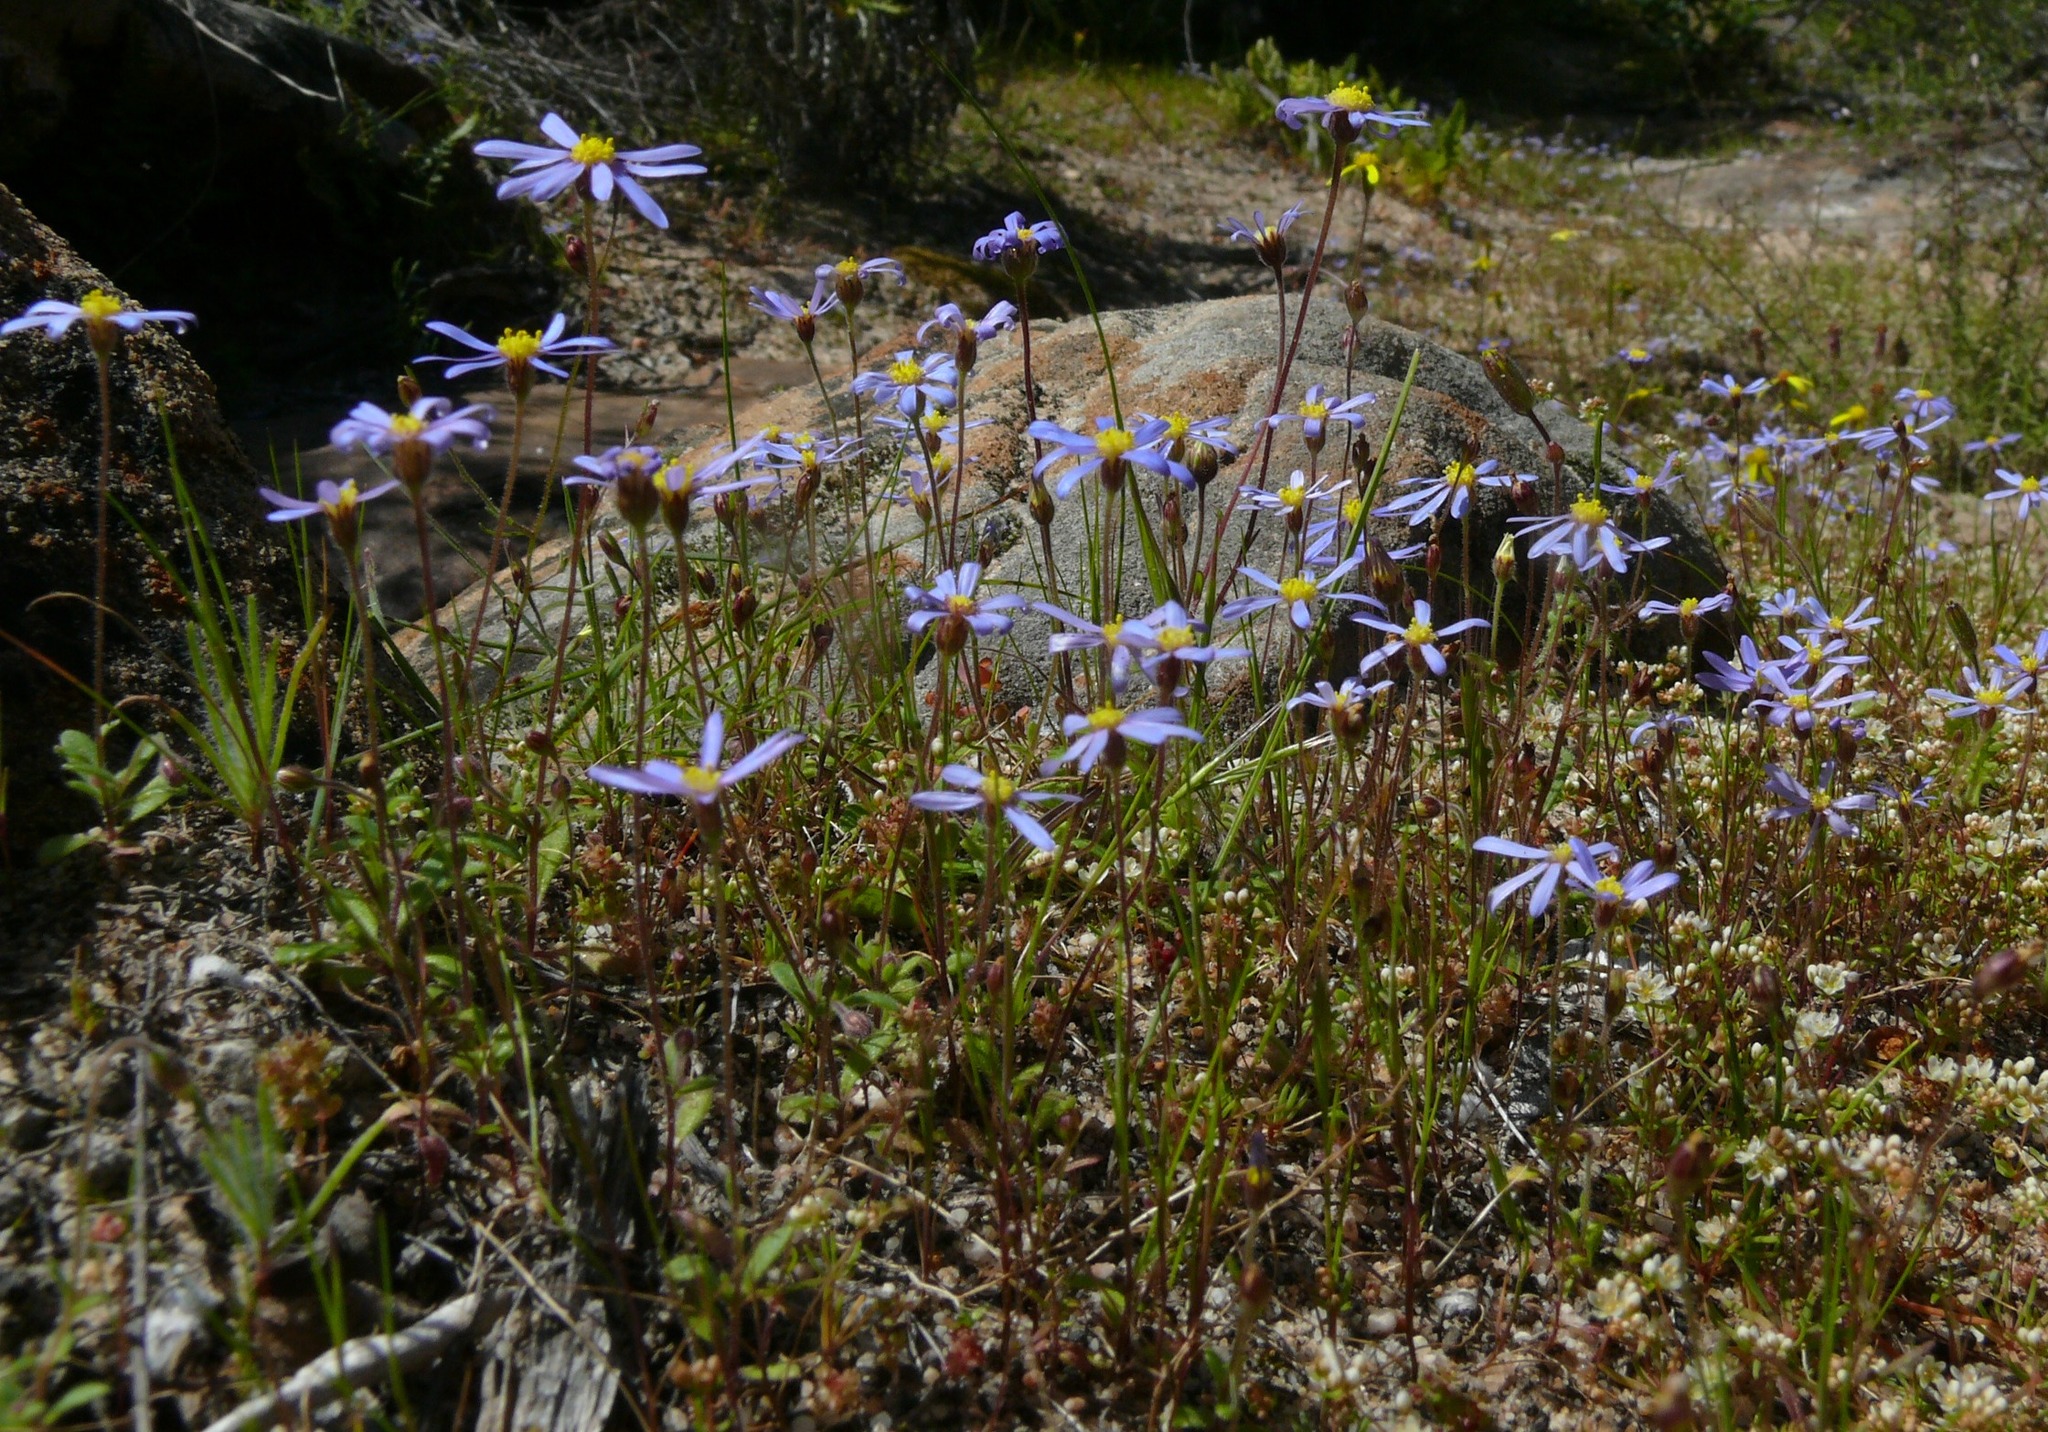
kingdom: Plantae
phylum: Tracheophyta
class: Magnoliopsida
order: Asterales
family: Asteraceae
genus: Felicia
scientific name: Felicia merxmuelleri
